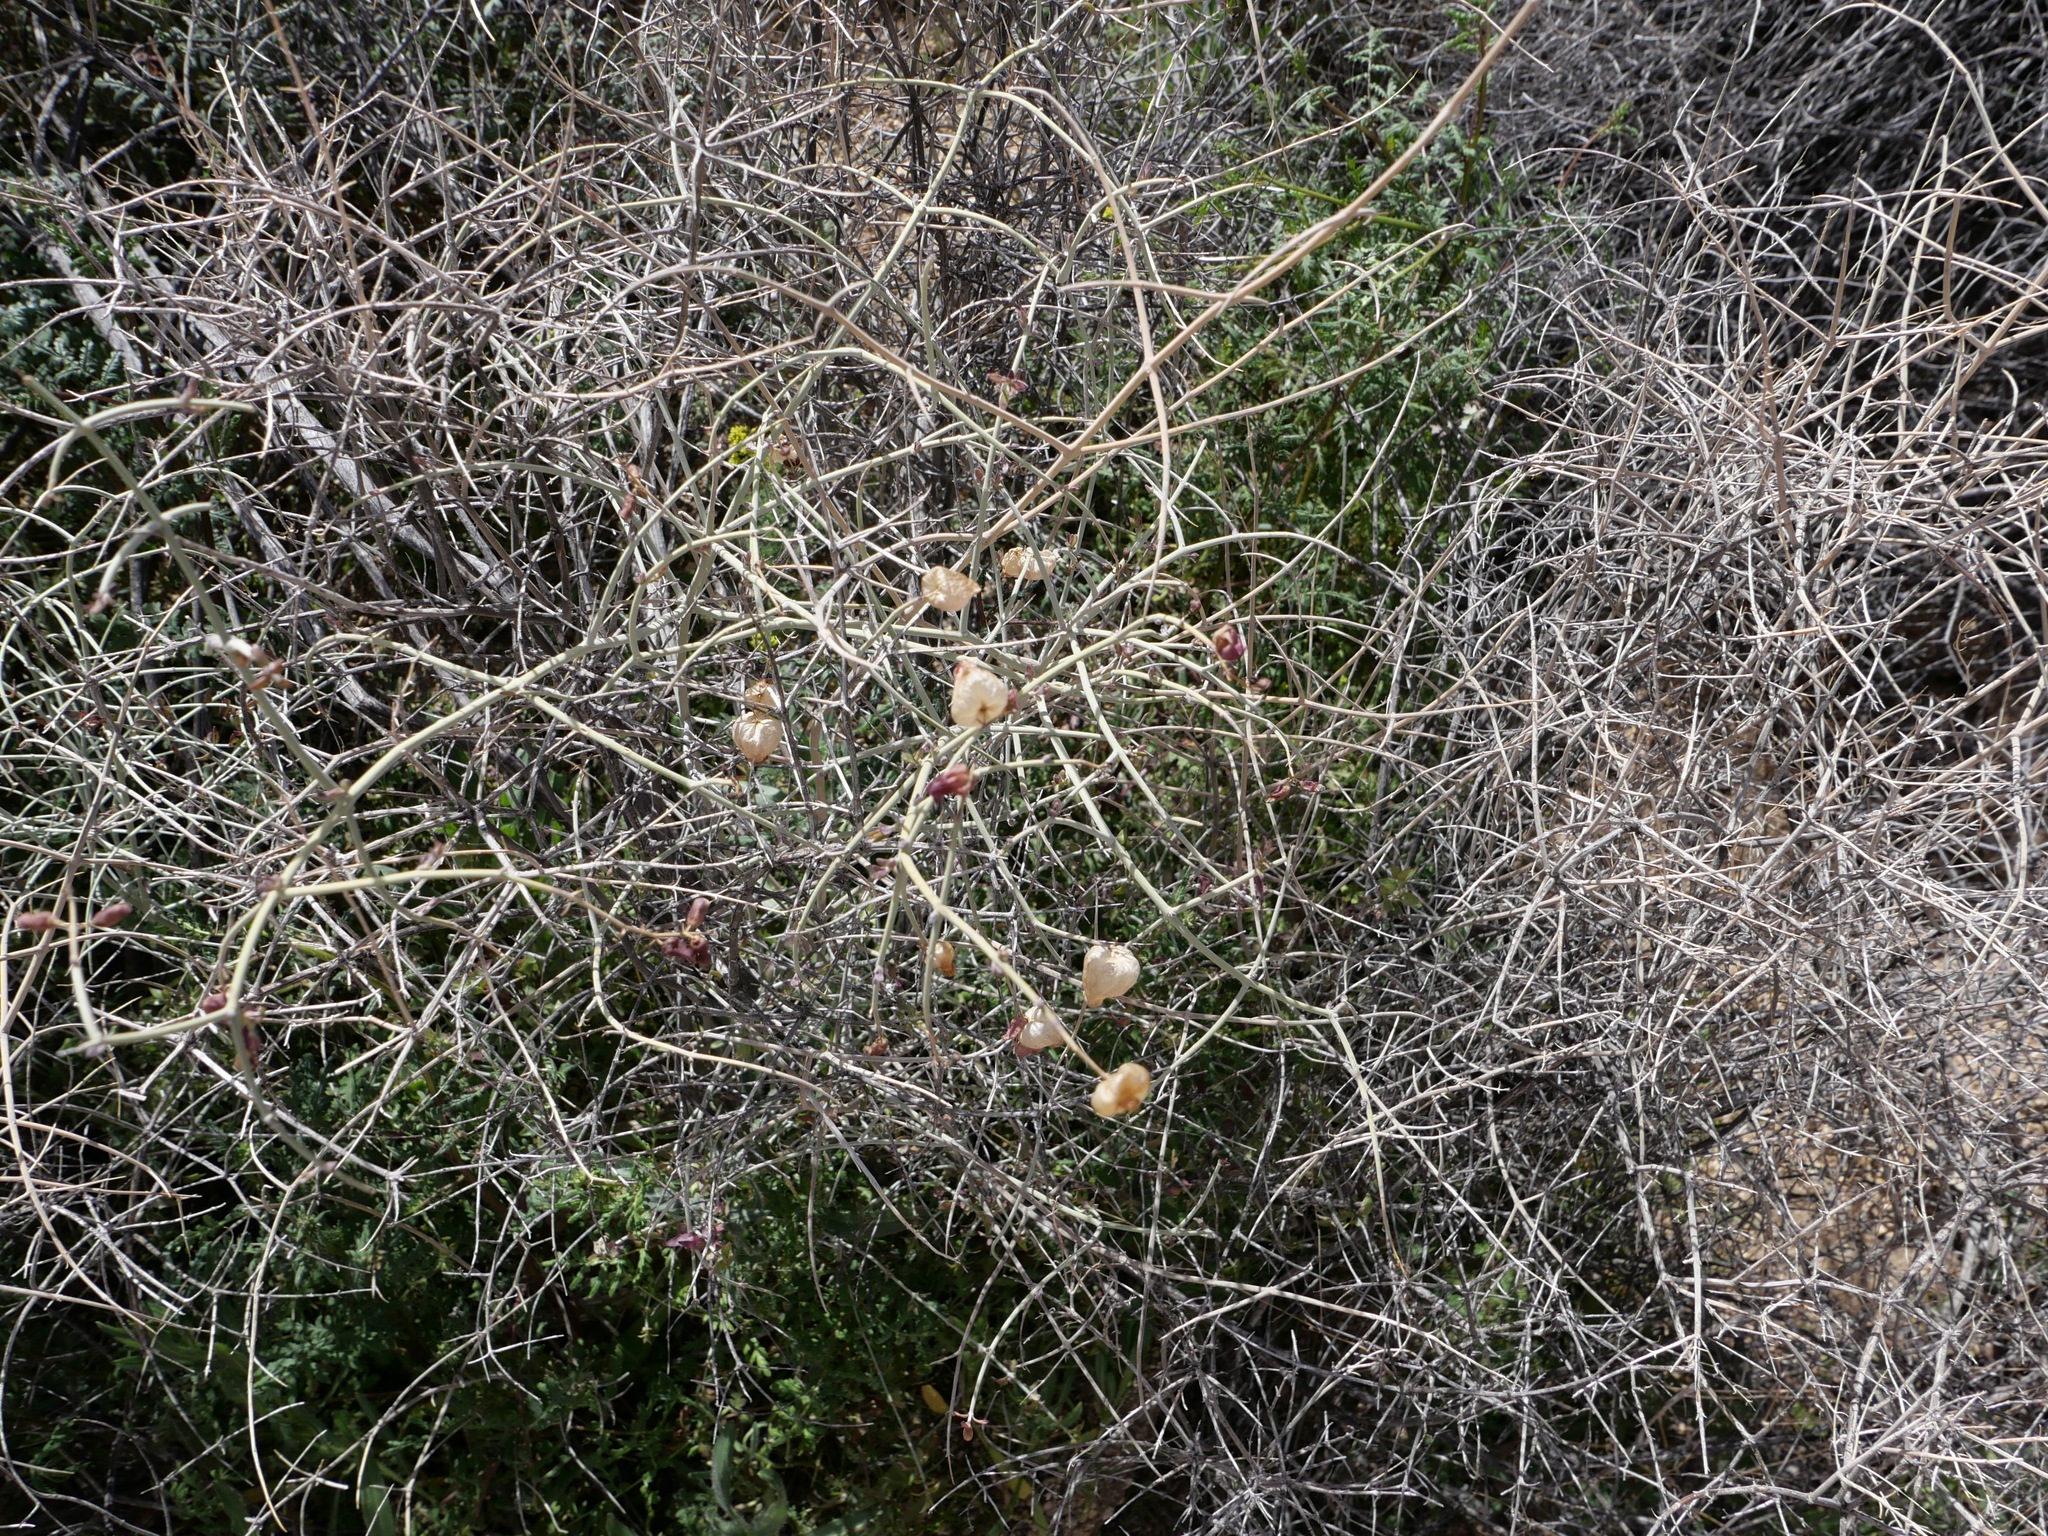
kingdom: Plantae
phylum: Tracheophyta
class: Magnoliopsida
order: Lamiales
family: Lamiaceae
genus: Scutellaria
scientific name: Scutellaria mexicana
